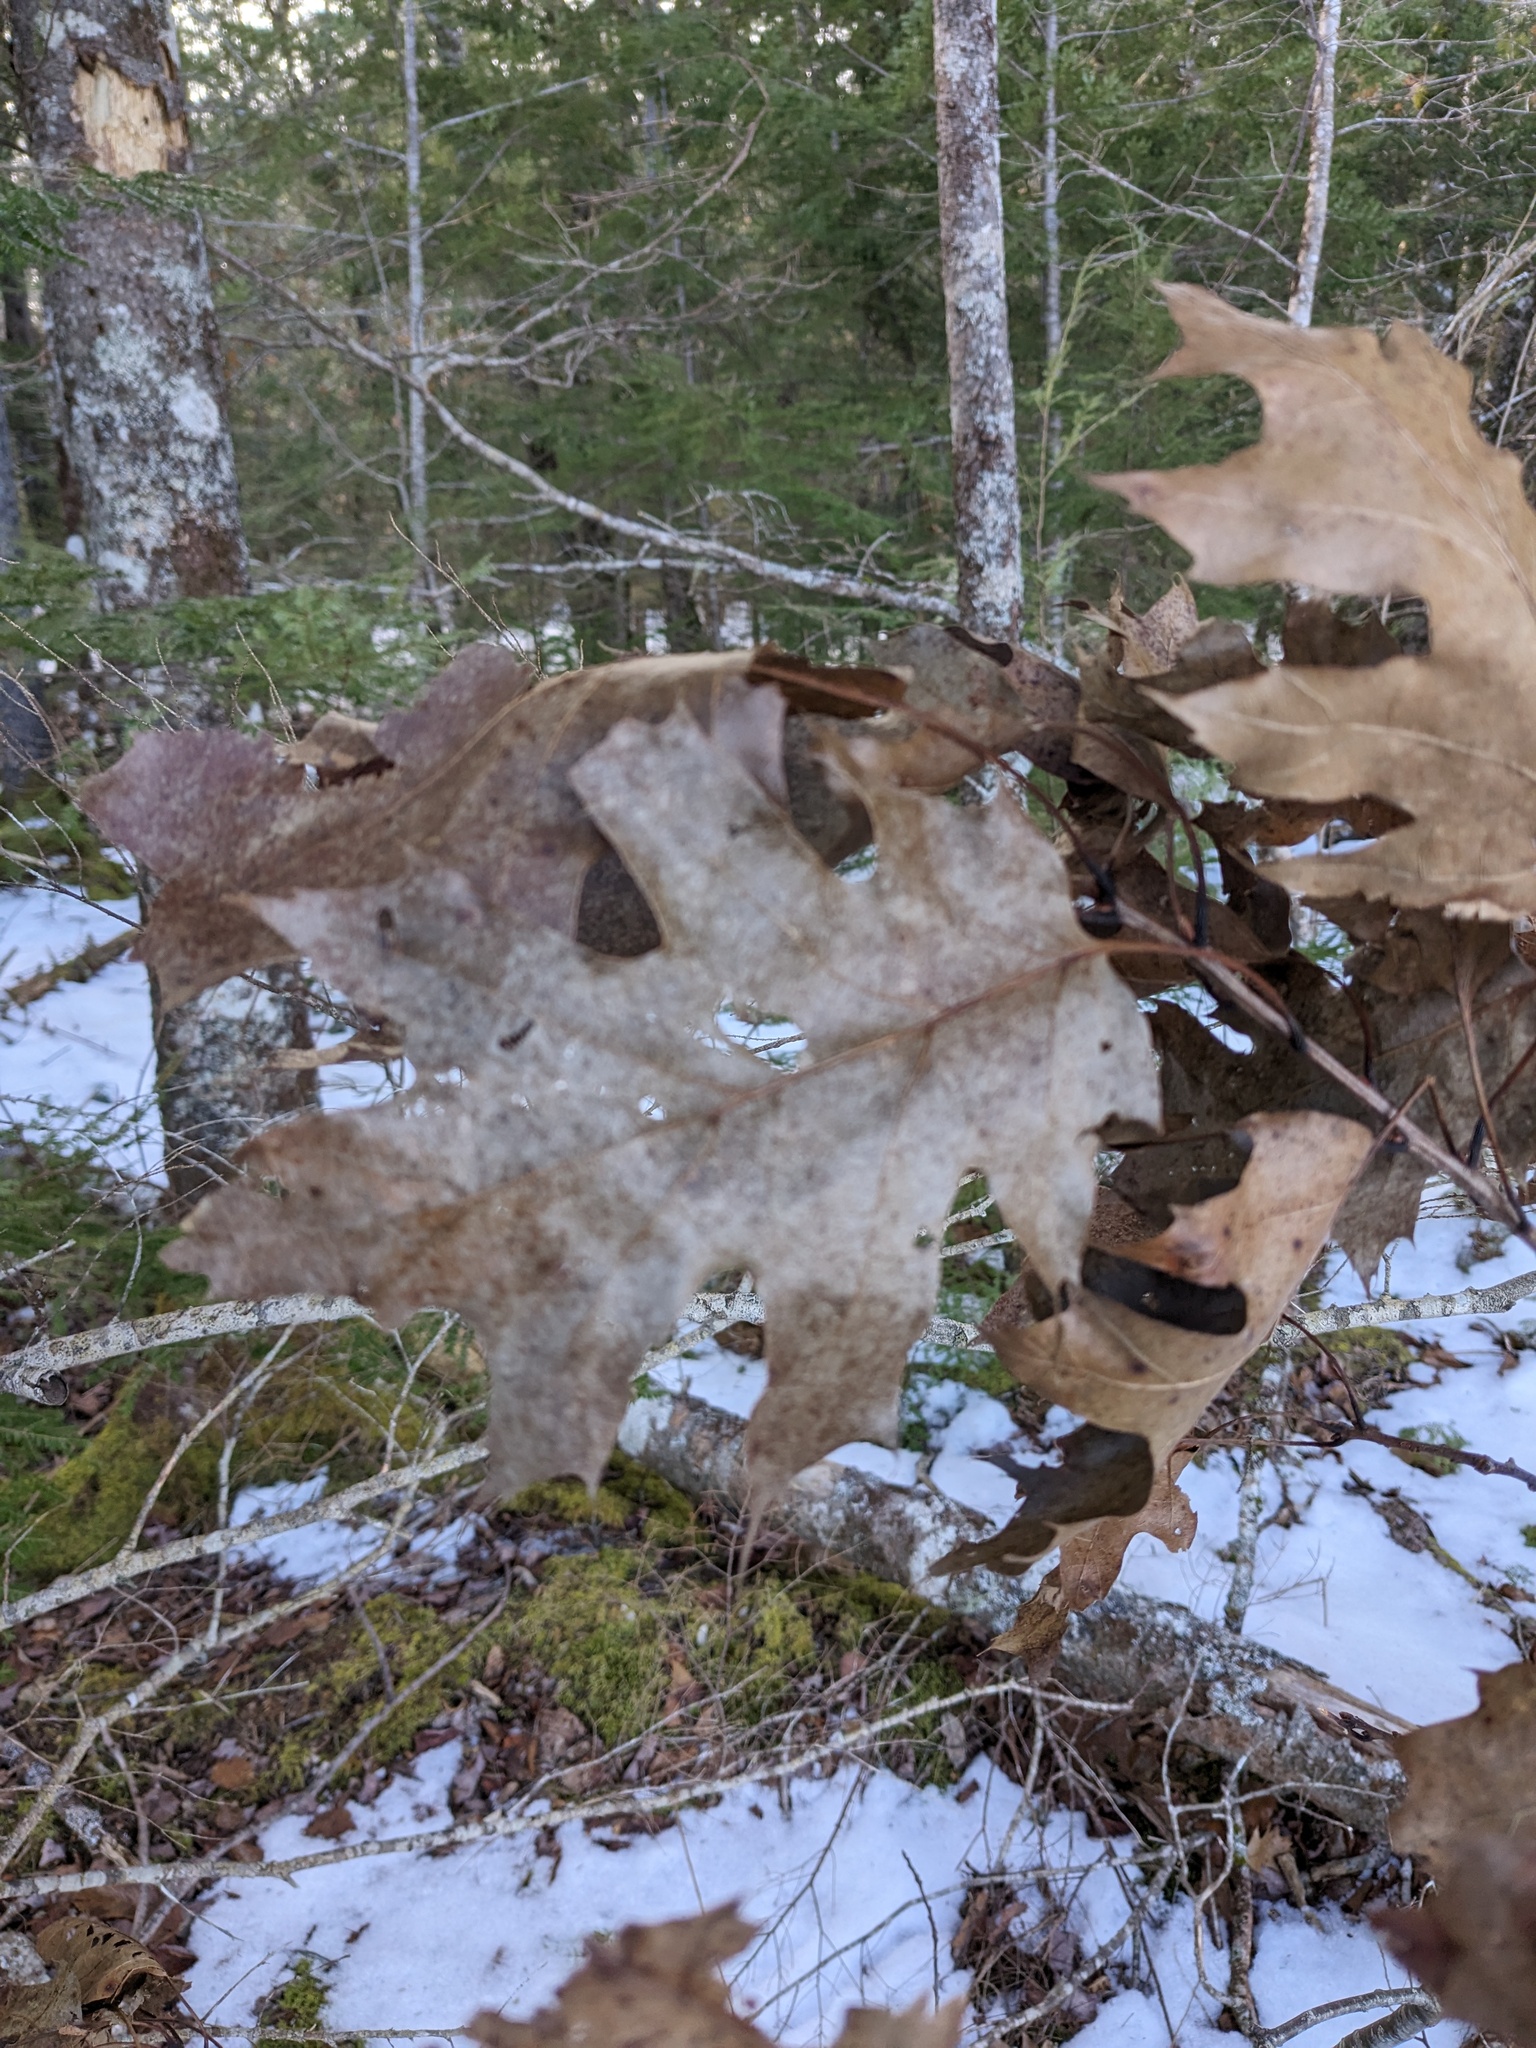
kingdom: Plantae
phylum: Tracheophyta
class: Magnoliopsida
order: Fagales
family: Fagaceae
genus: Quercus
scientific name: Quercus rubra
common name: Red oak
